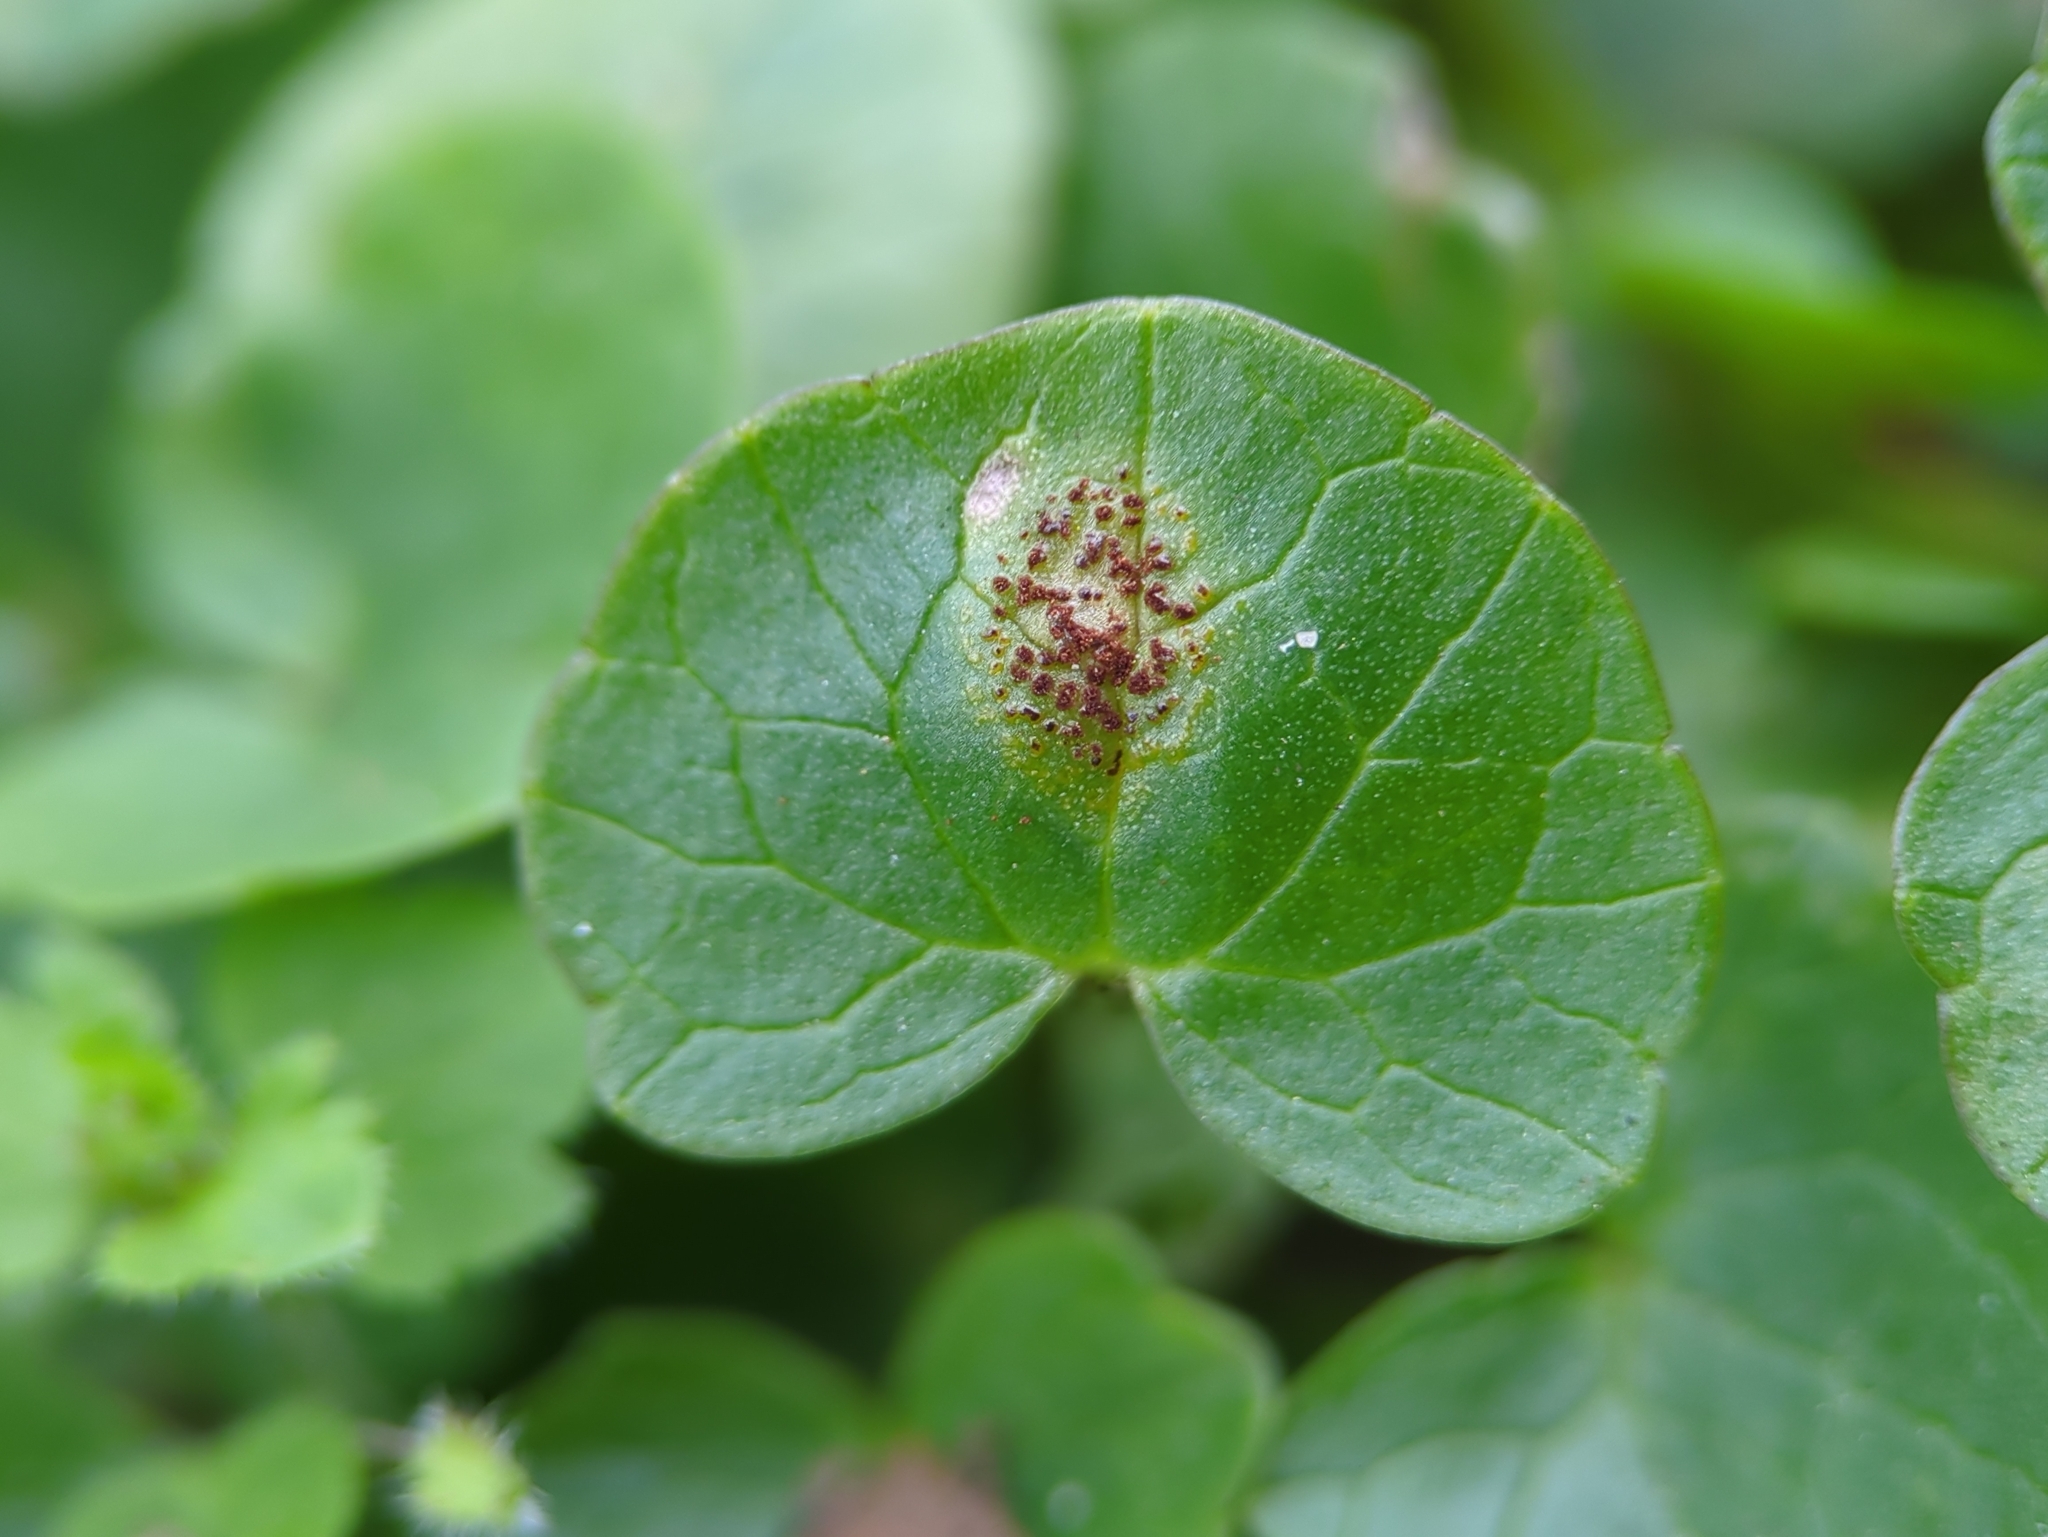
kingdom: Fungi
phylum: Basidiomycota
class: Pucciniomycetes
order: Pucciniales
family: Pucciniaceae
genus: Uromyces
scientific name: Uromyces ficariae
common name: Bitter chocolate rust
